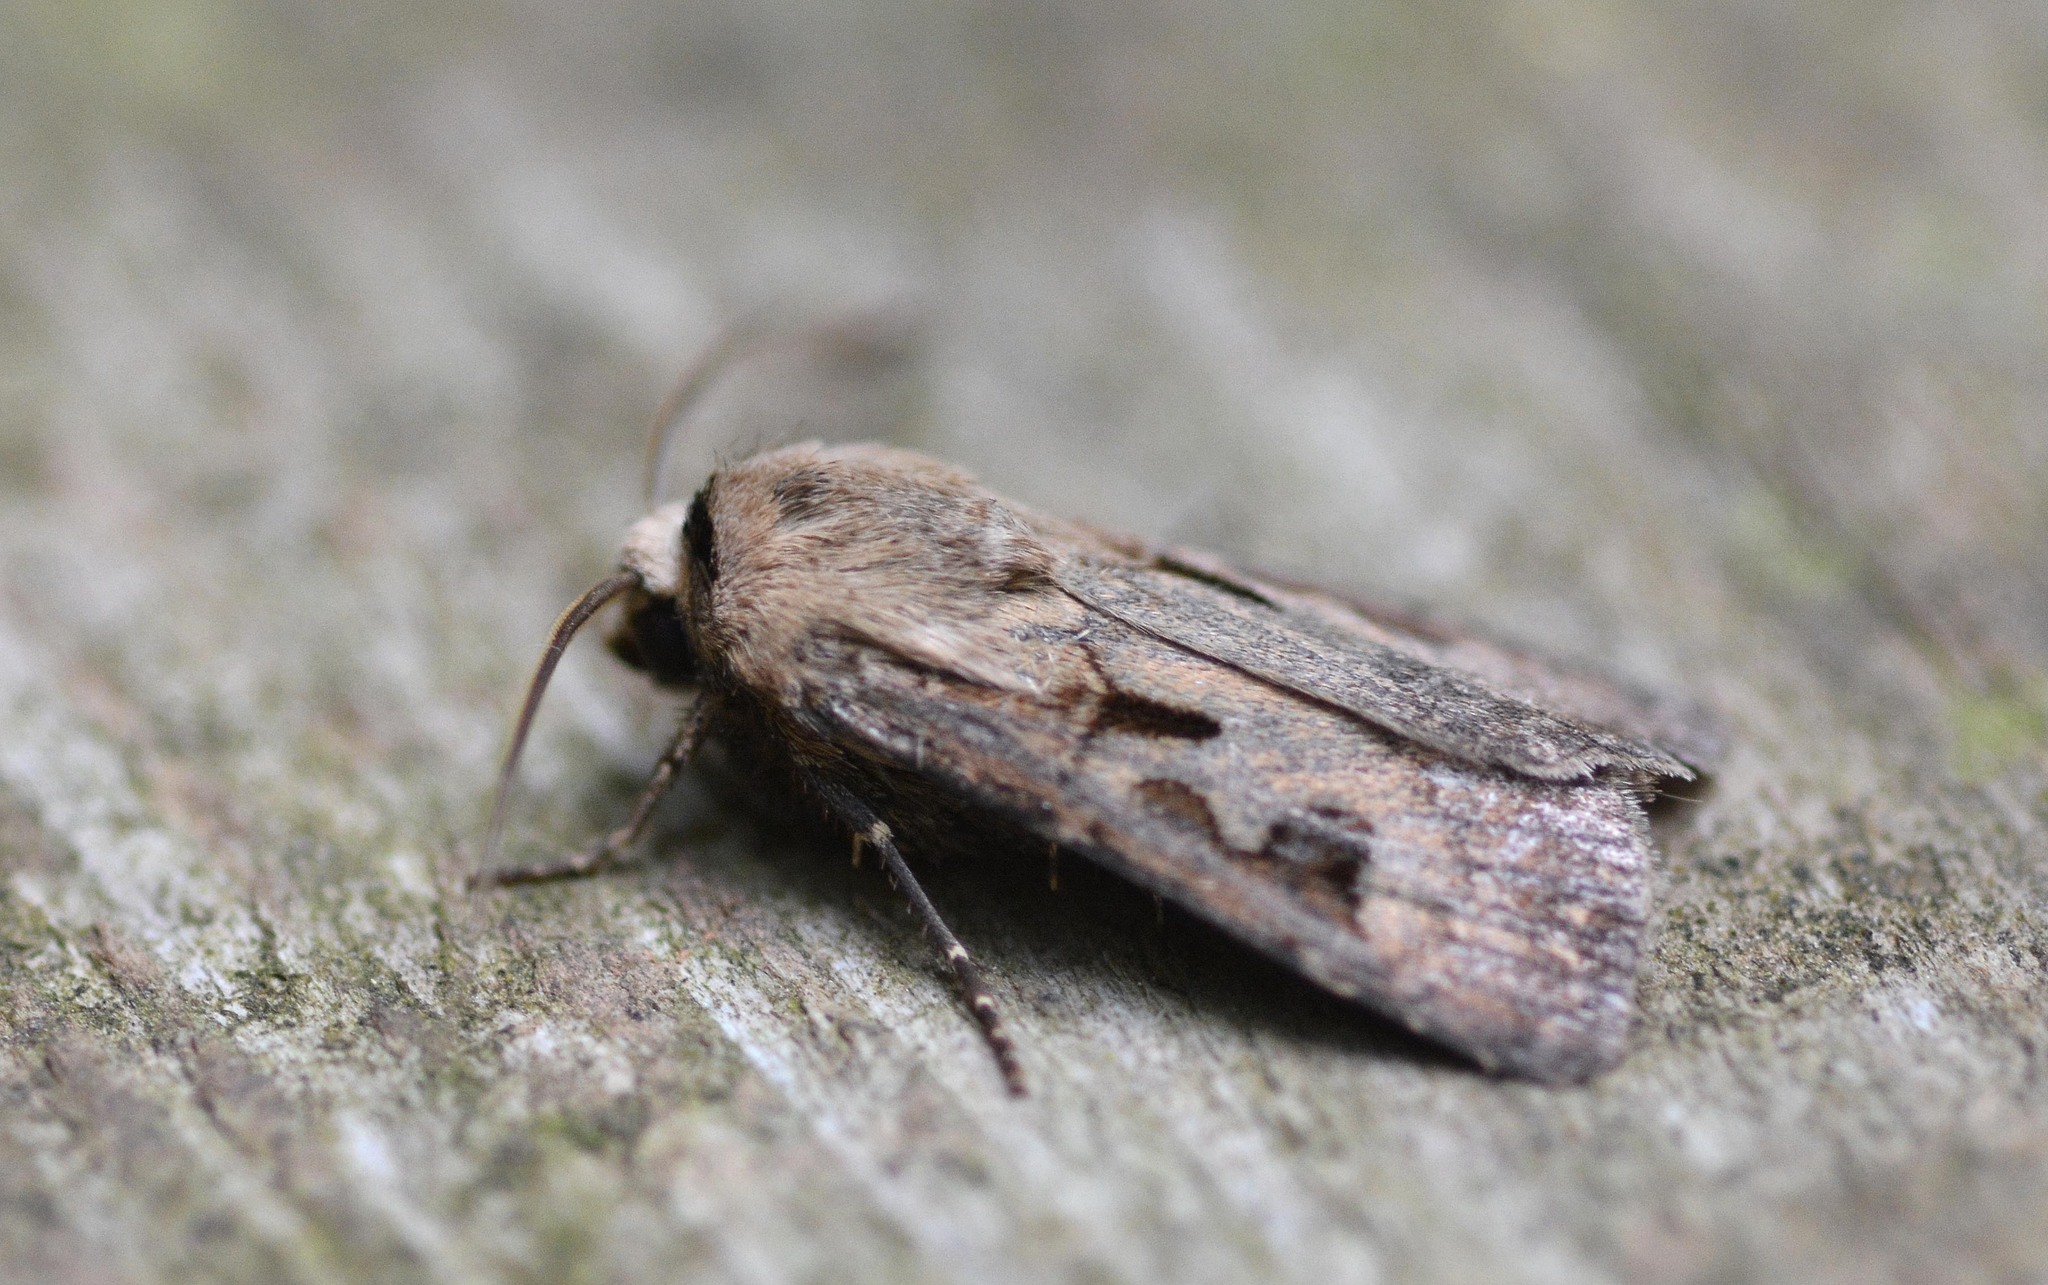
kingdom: Animalia
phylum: Arthropoda
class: Insecta
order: Lepidoptera
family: Noctuidae
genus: Agrotis
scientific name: Agrotis exclamationis
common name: Heart and dart
